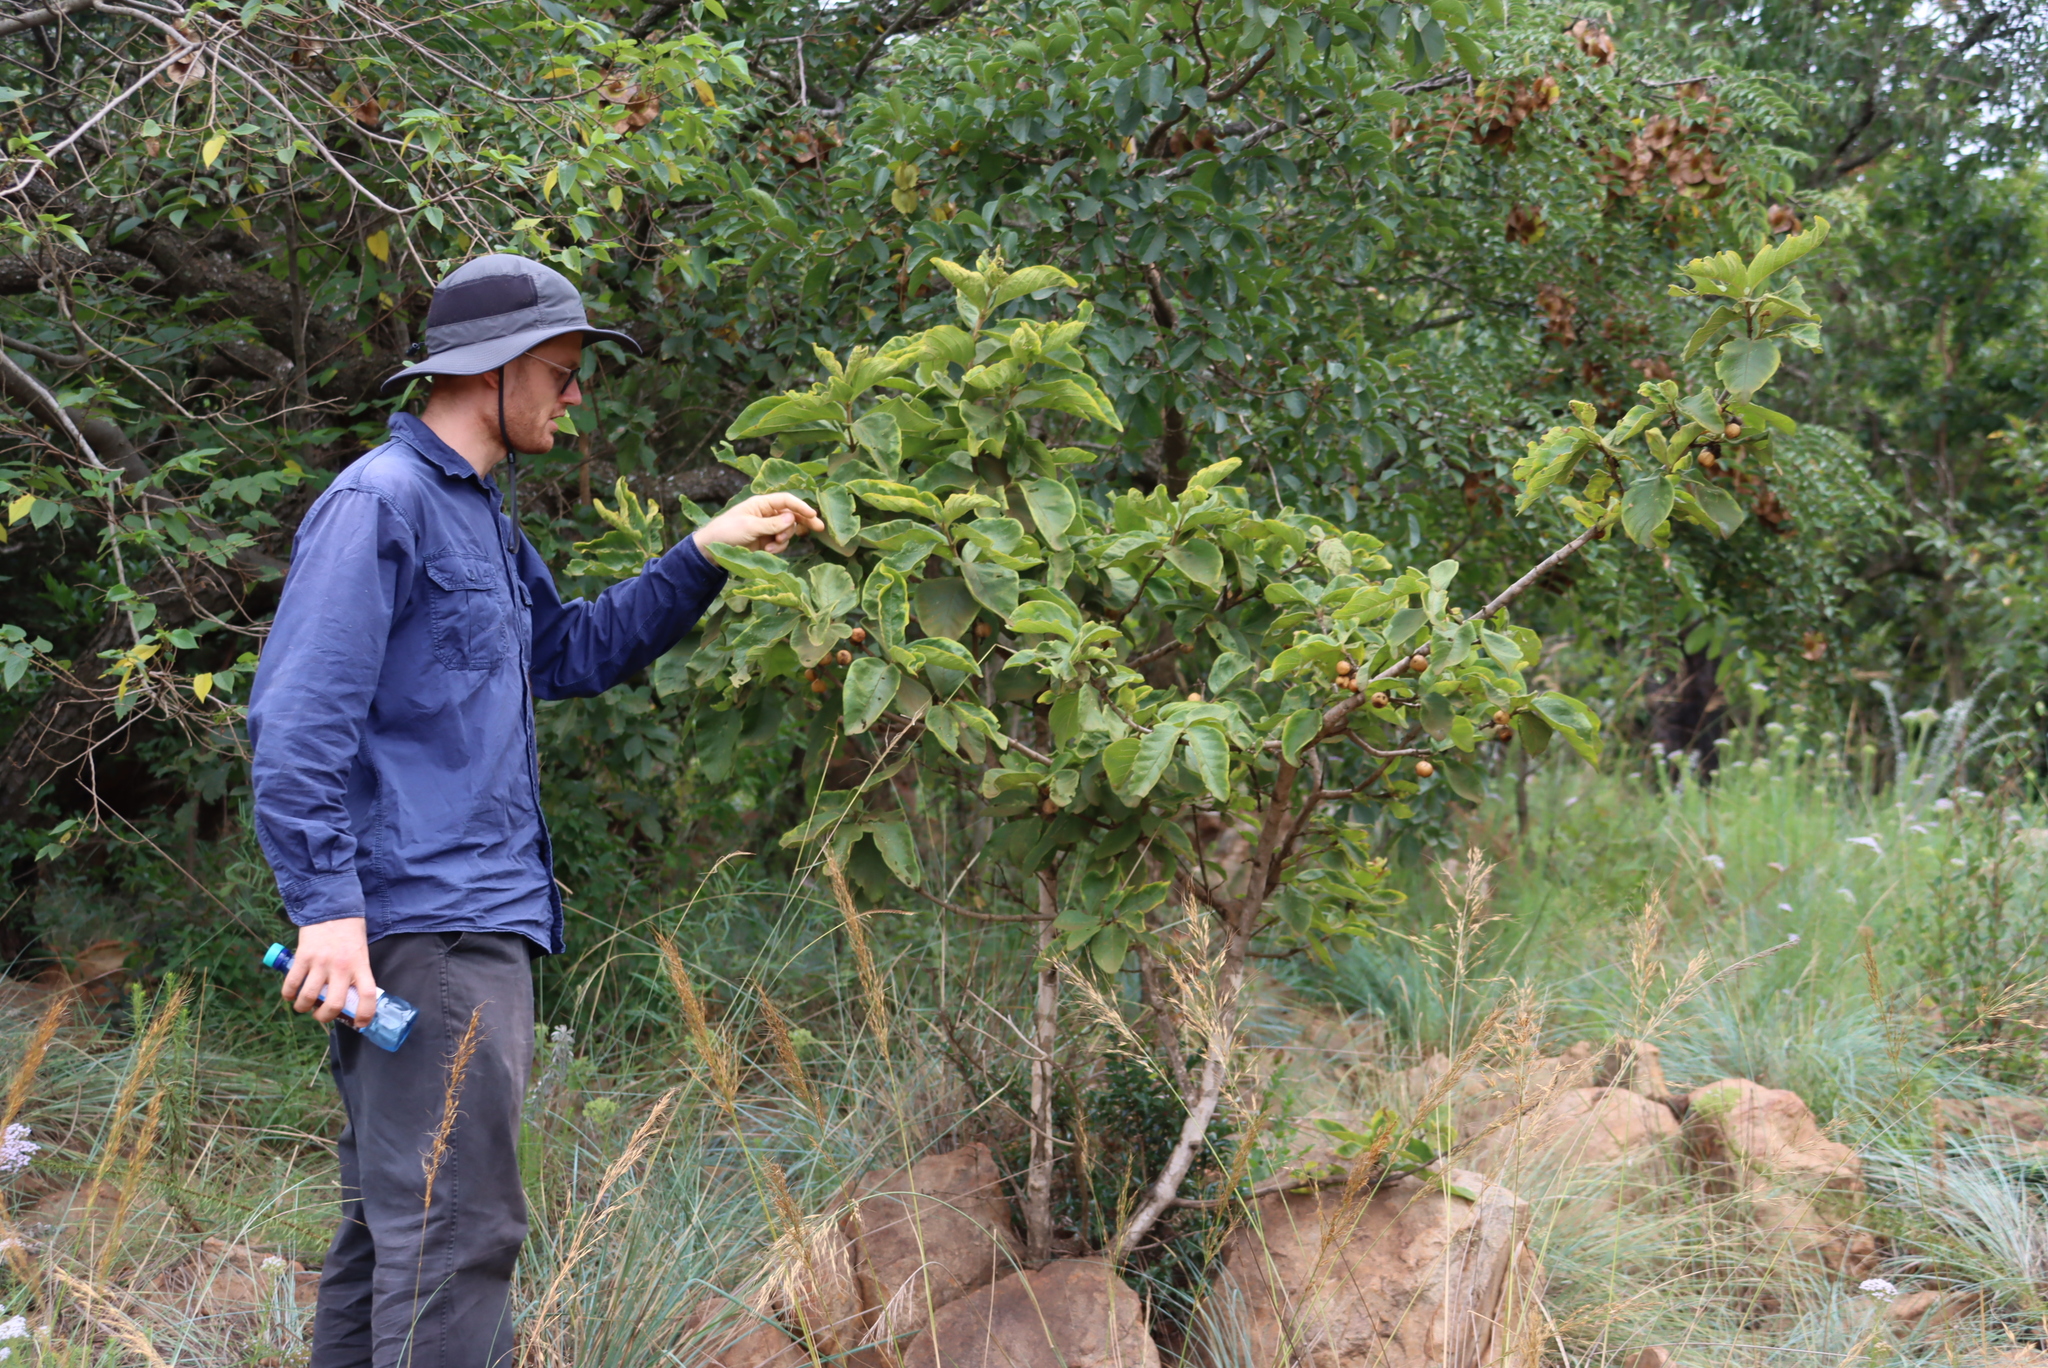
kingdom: Plantae
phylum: Tracheophyta
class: Magnoliopsida
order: Gentianales
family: Rubiaceae
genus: Vangueria
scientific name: Vangueria infausta
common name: Medlar
